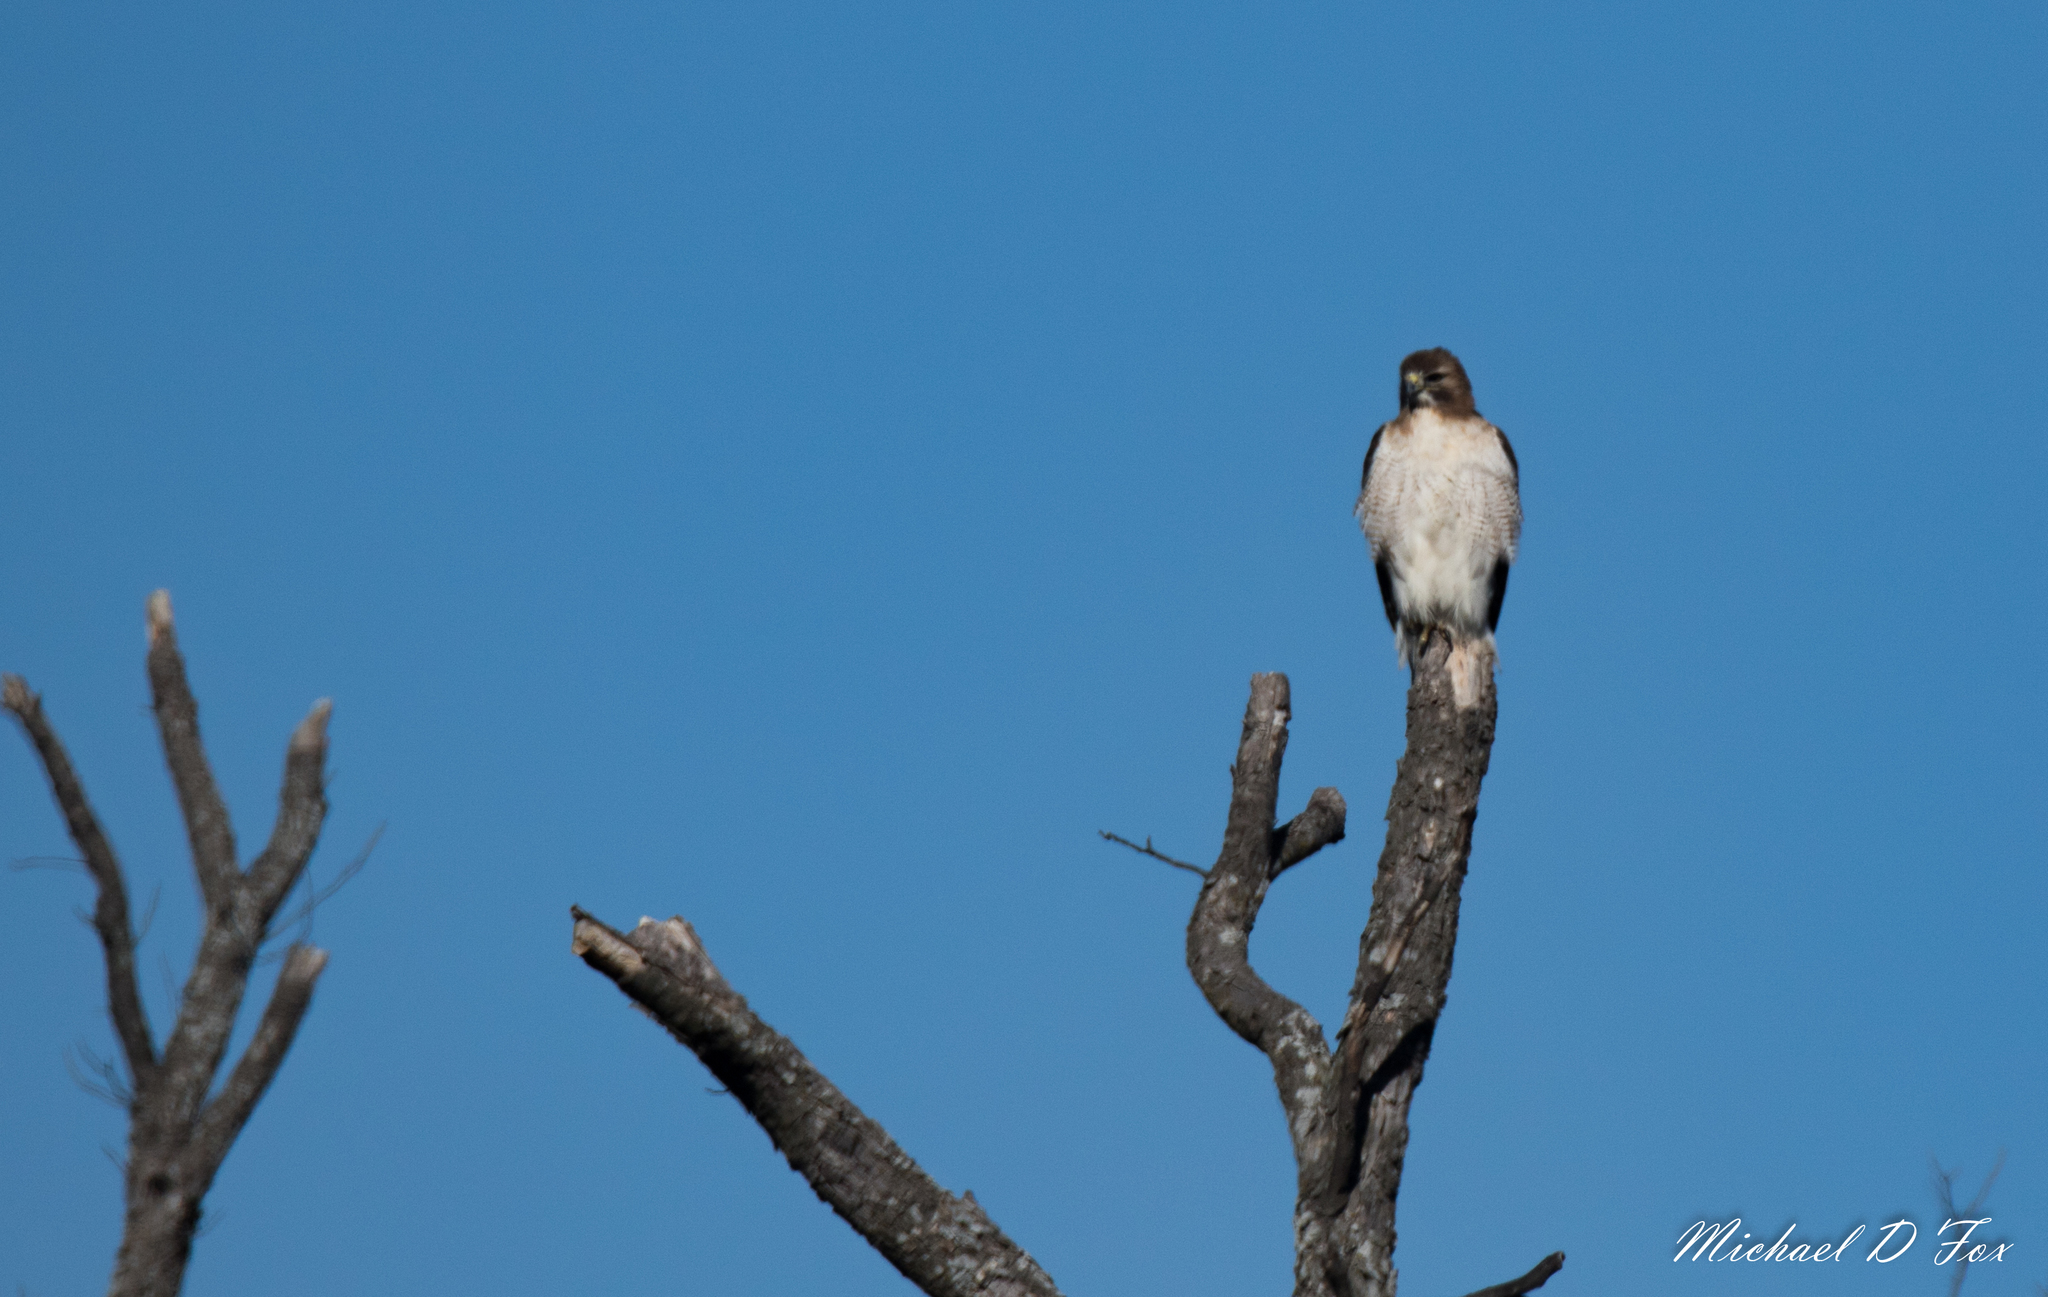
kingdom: Animalia
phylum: Chordata
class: Aves
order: Accipitriformes
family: Accipitridae
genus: Buteo
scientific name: Buteo jamaicensis
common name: Red-tailed hawk
